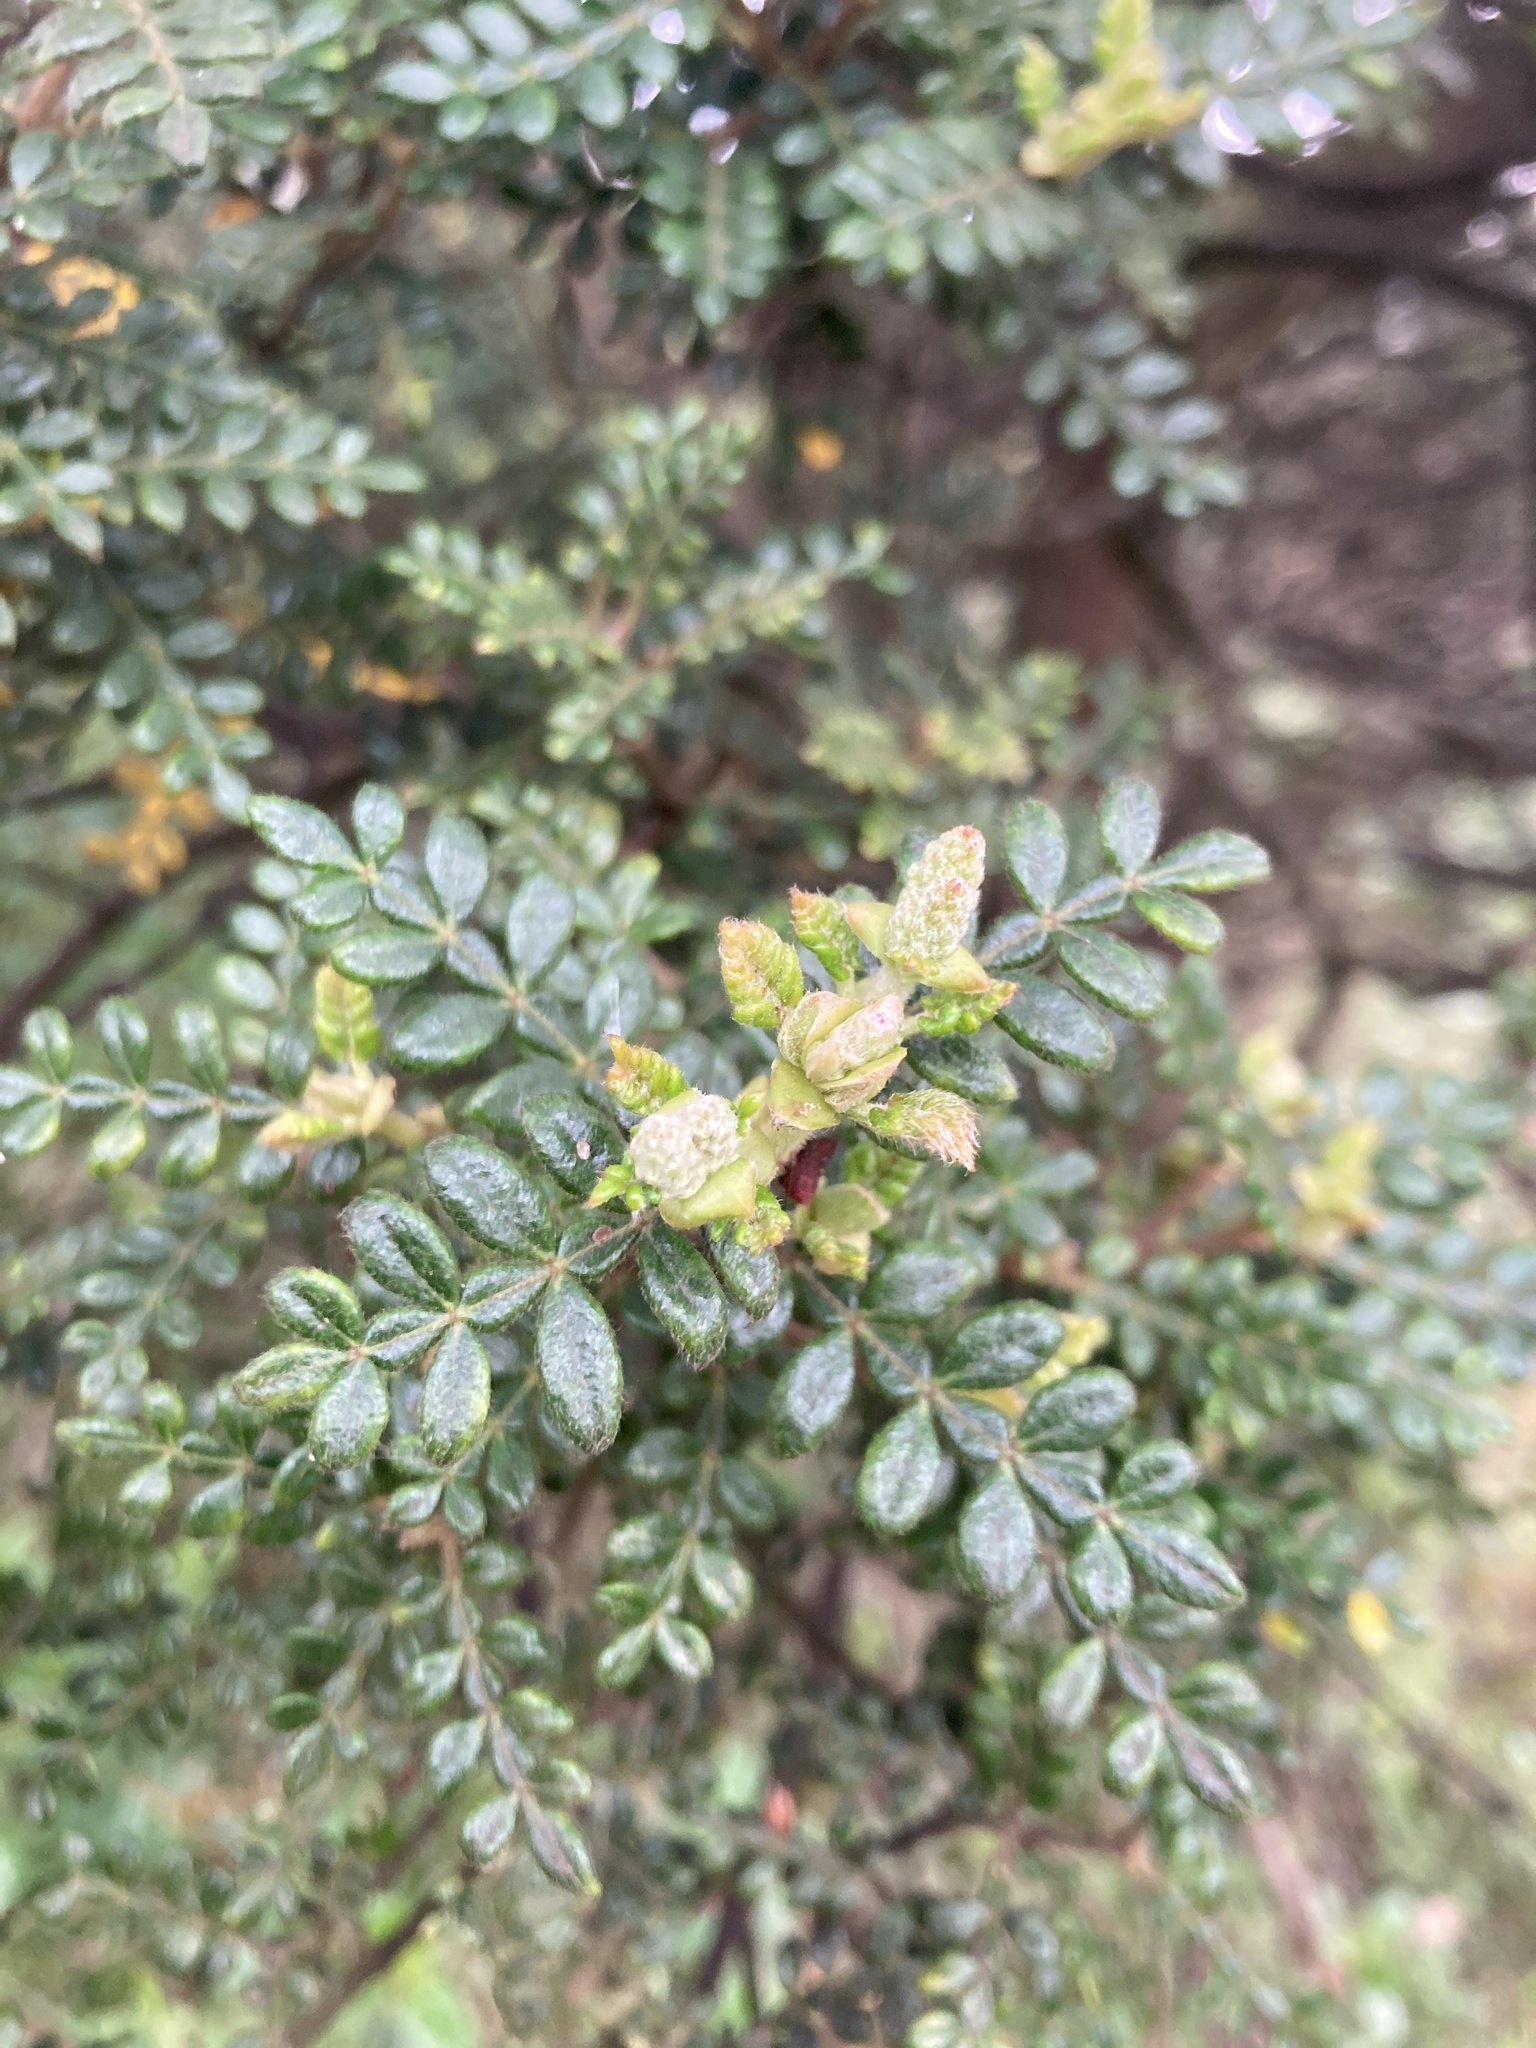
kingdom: Plantae
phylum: Tracheophyta
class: Magnoliopsida
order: Oxalidales
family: Cunoniaceae
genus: Weinmannia
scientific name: Weinmannia tomentosa
